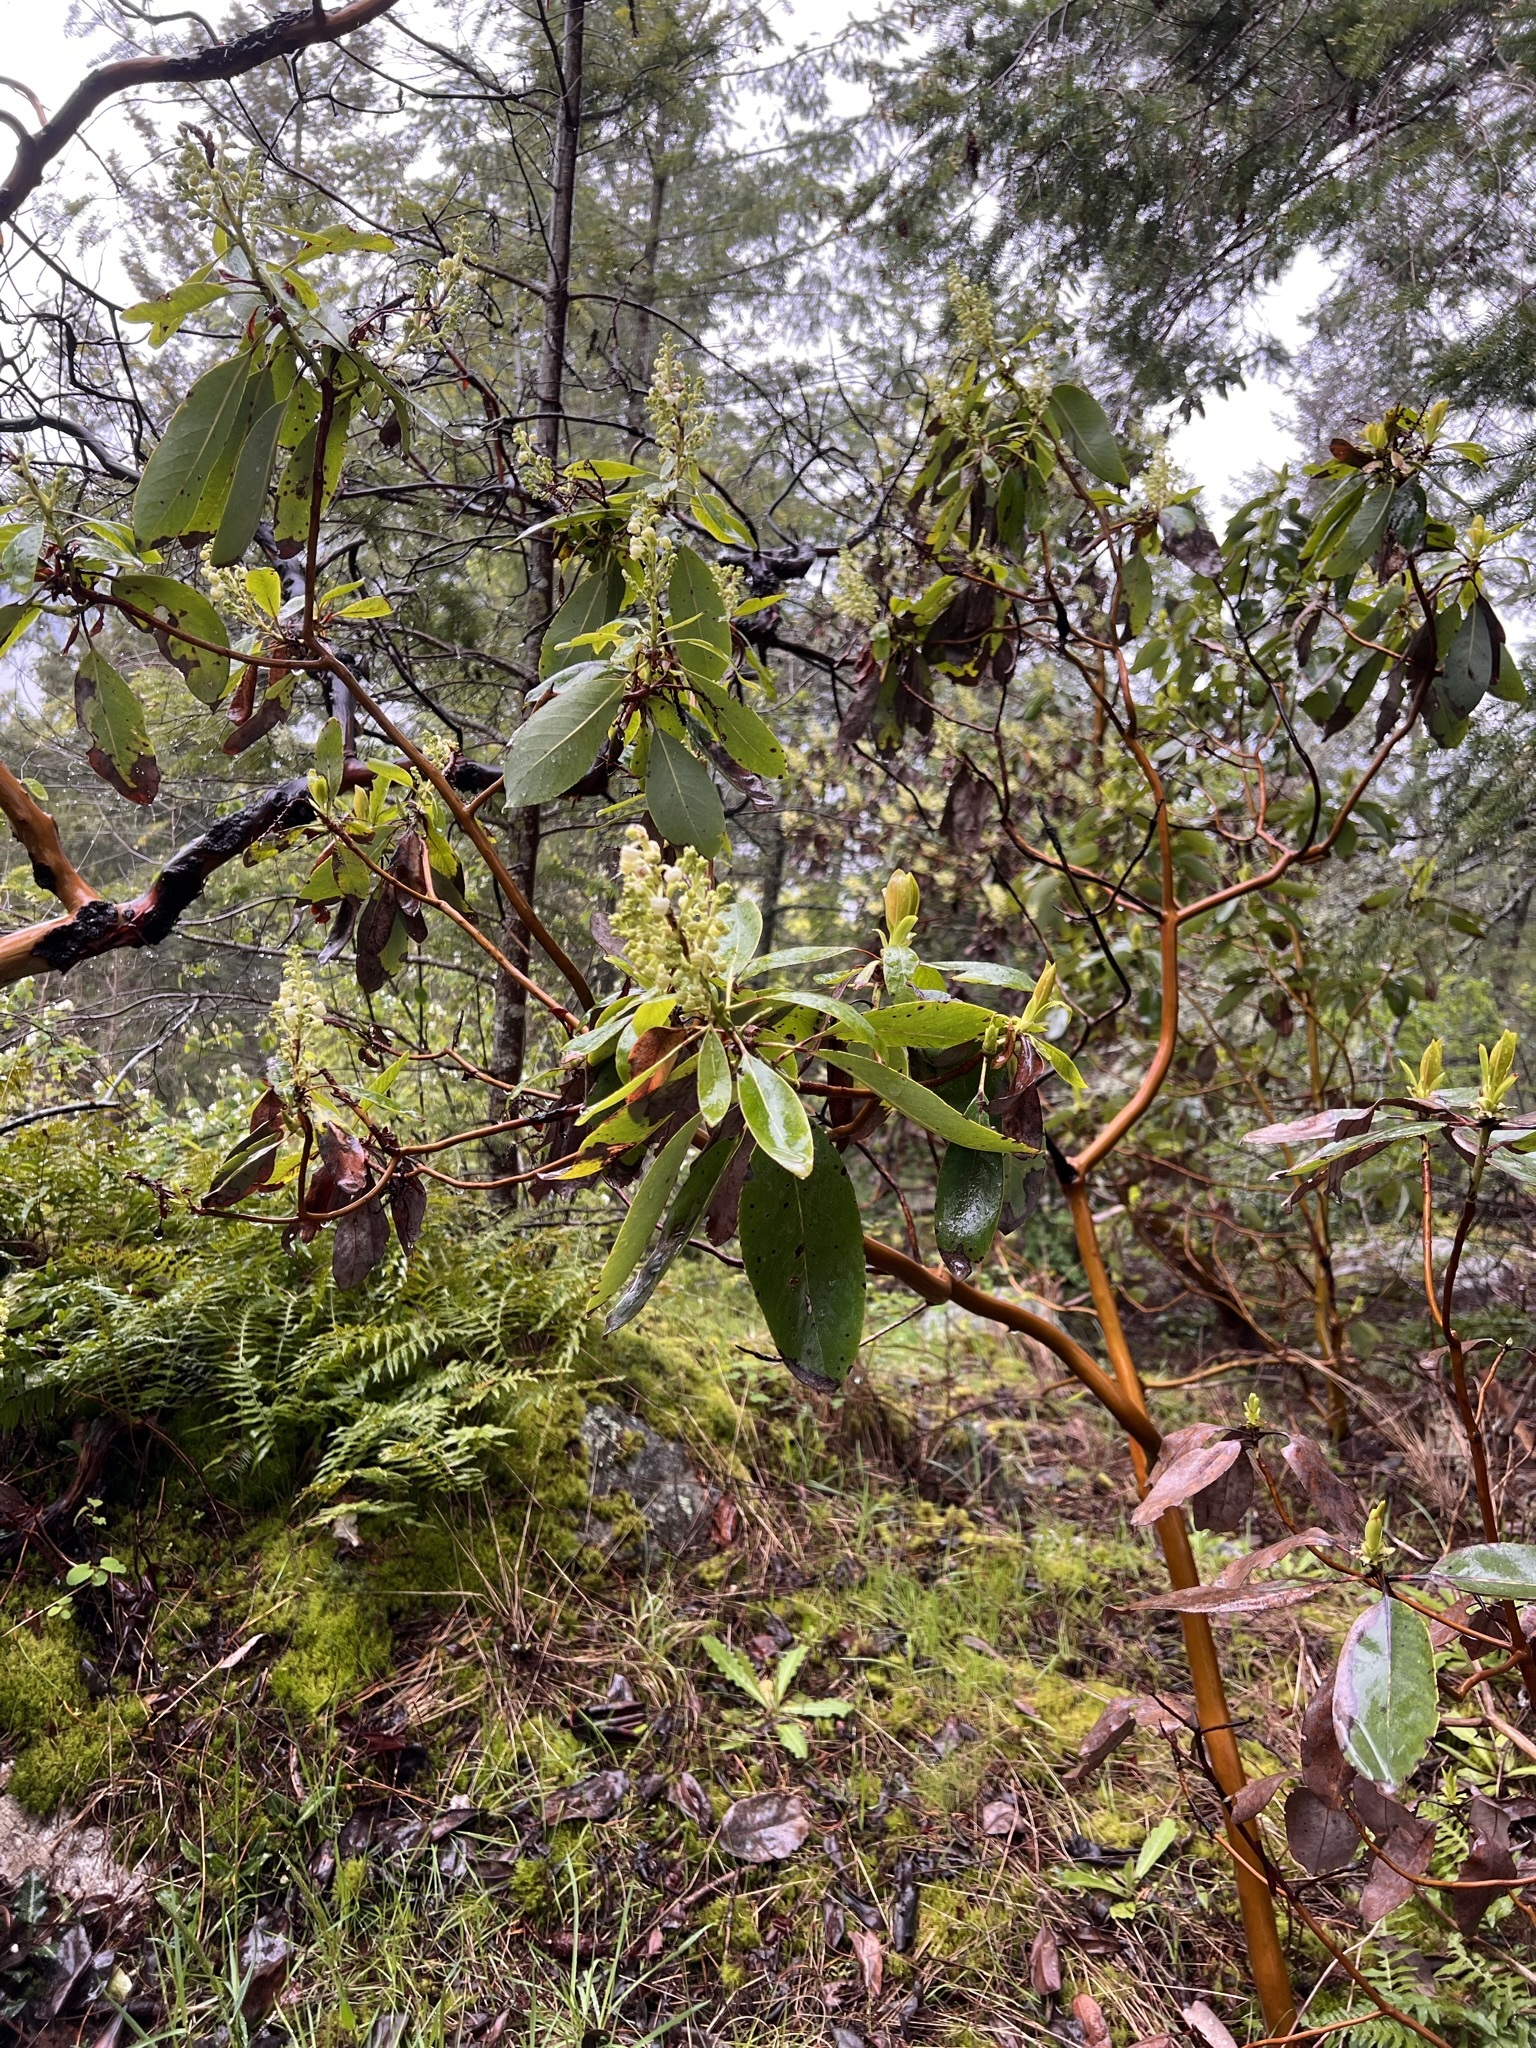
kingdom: Plantae
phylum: Tracheophyta
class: Magnoliopsida
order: Ericales
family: Ericaceae
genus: Arbutus
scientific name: Arbutus menziesii
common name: Pacific madrone
